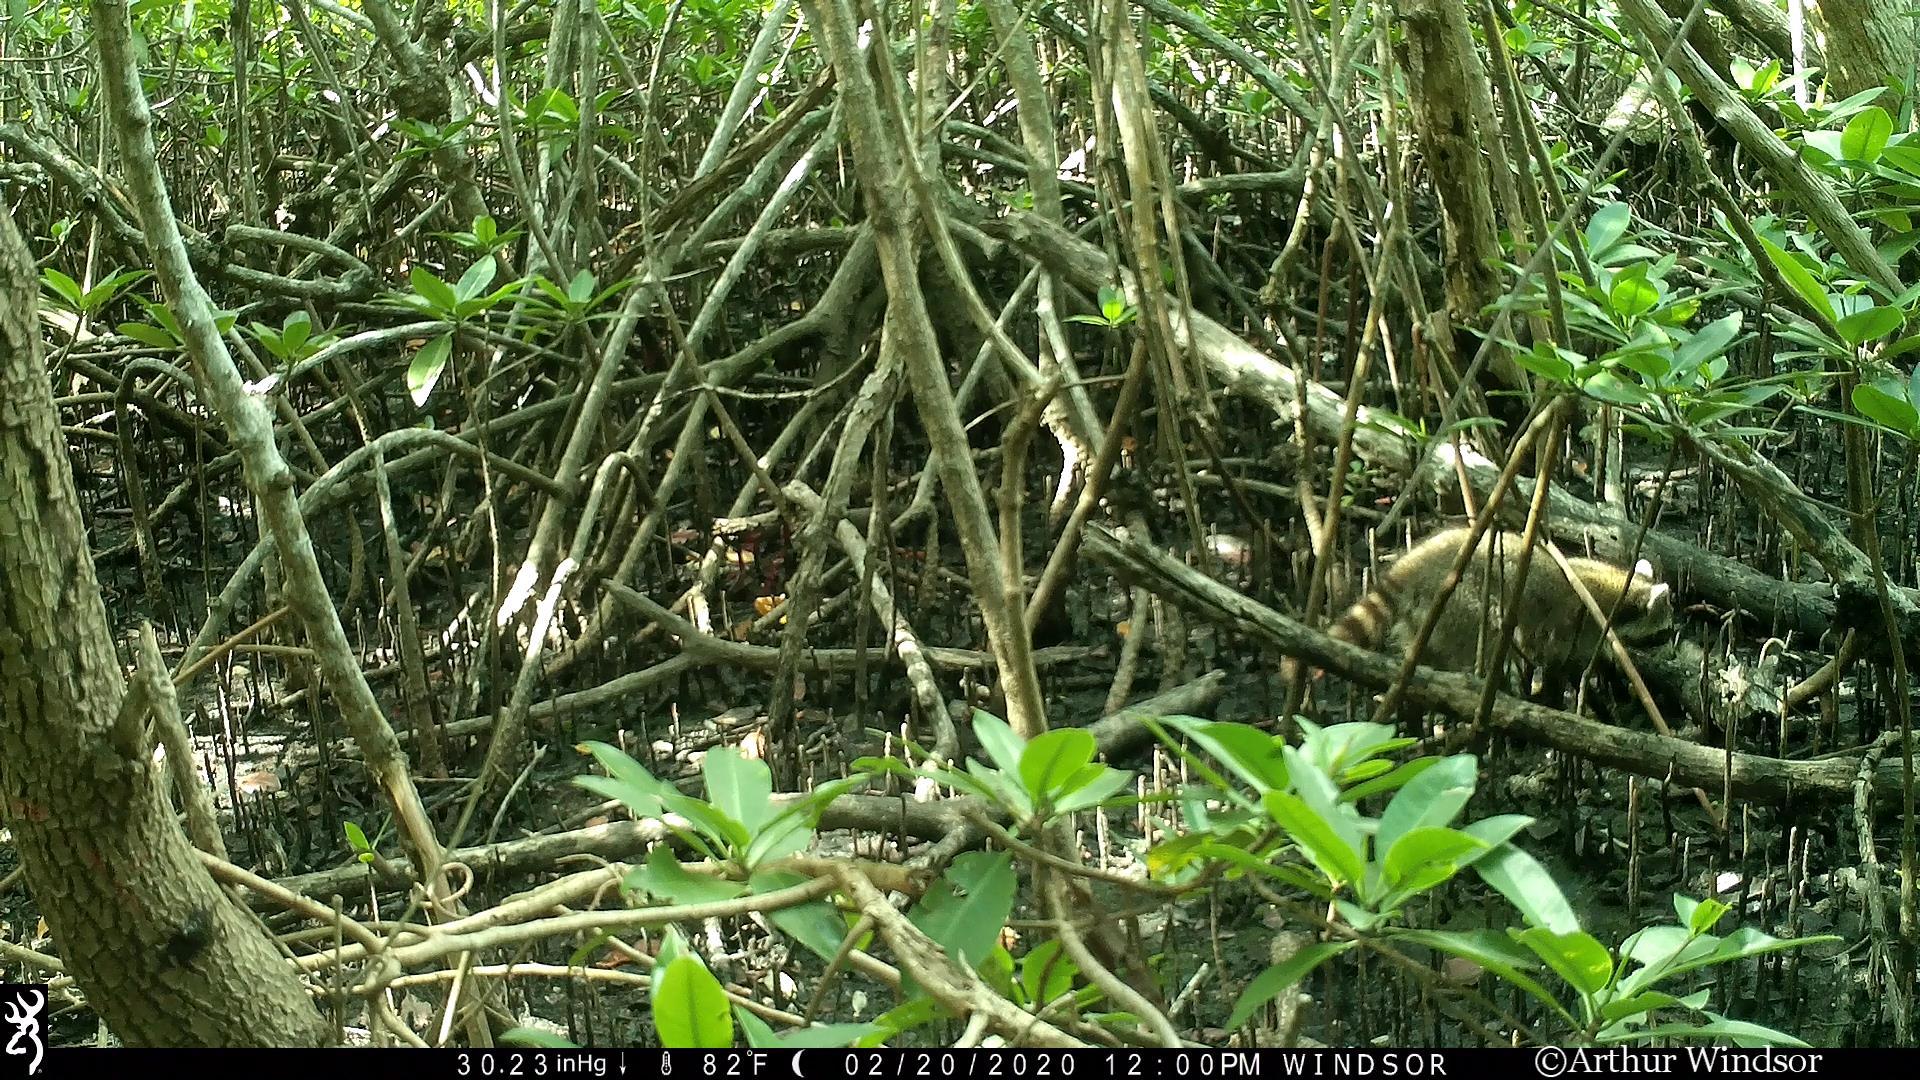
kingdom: Animalia
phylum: Chordata
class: Mammalia
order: Carnivora
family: Procyonidae
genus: Procyon
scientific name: Procyon lotor
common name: Raccoon
